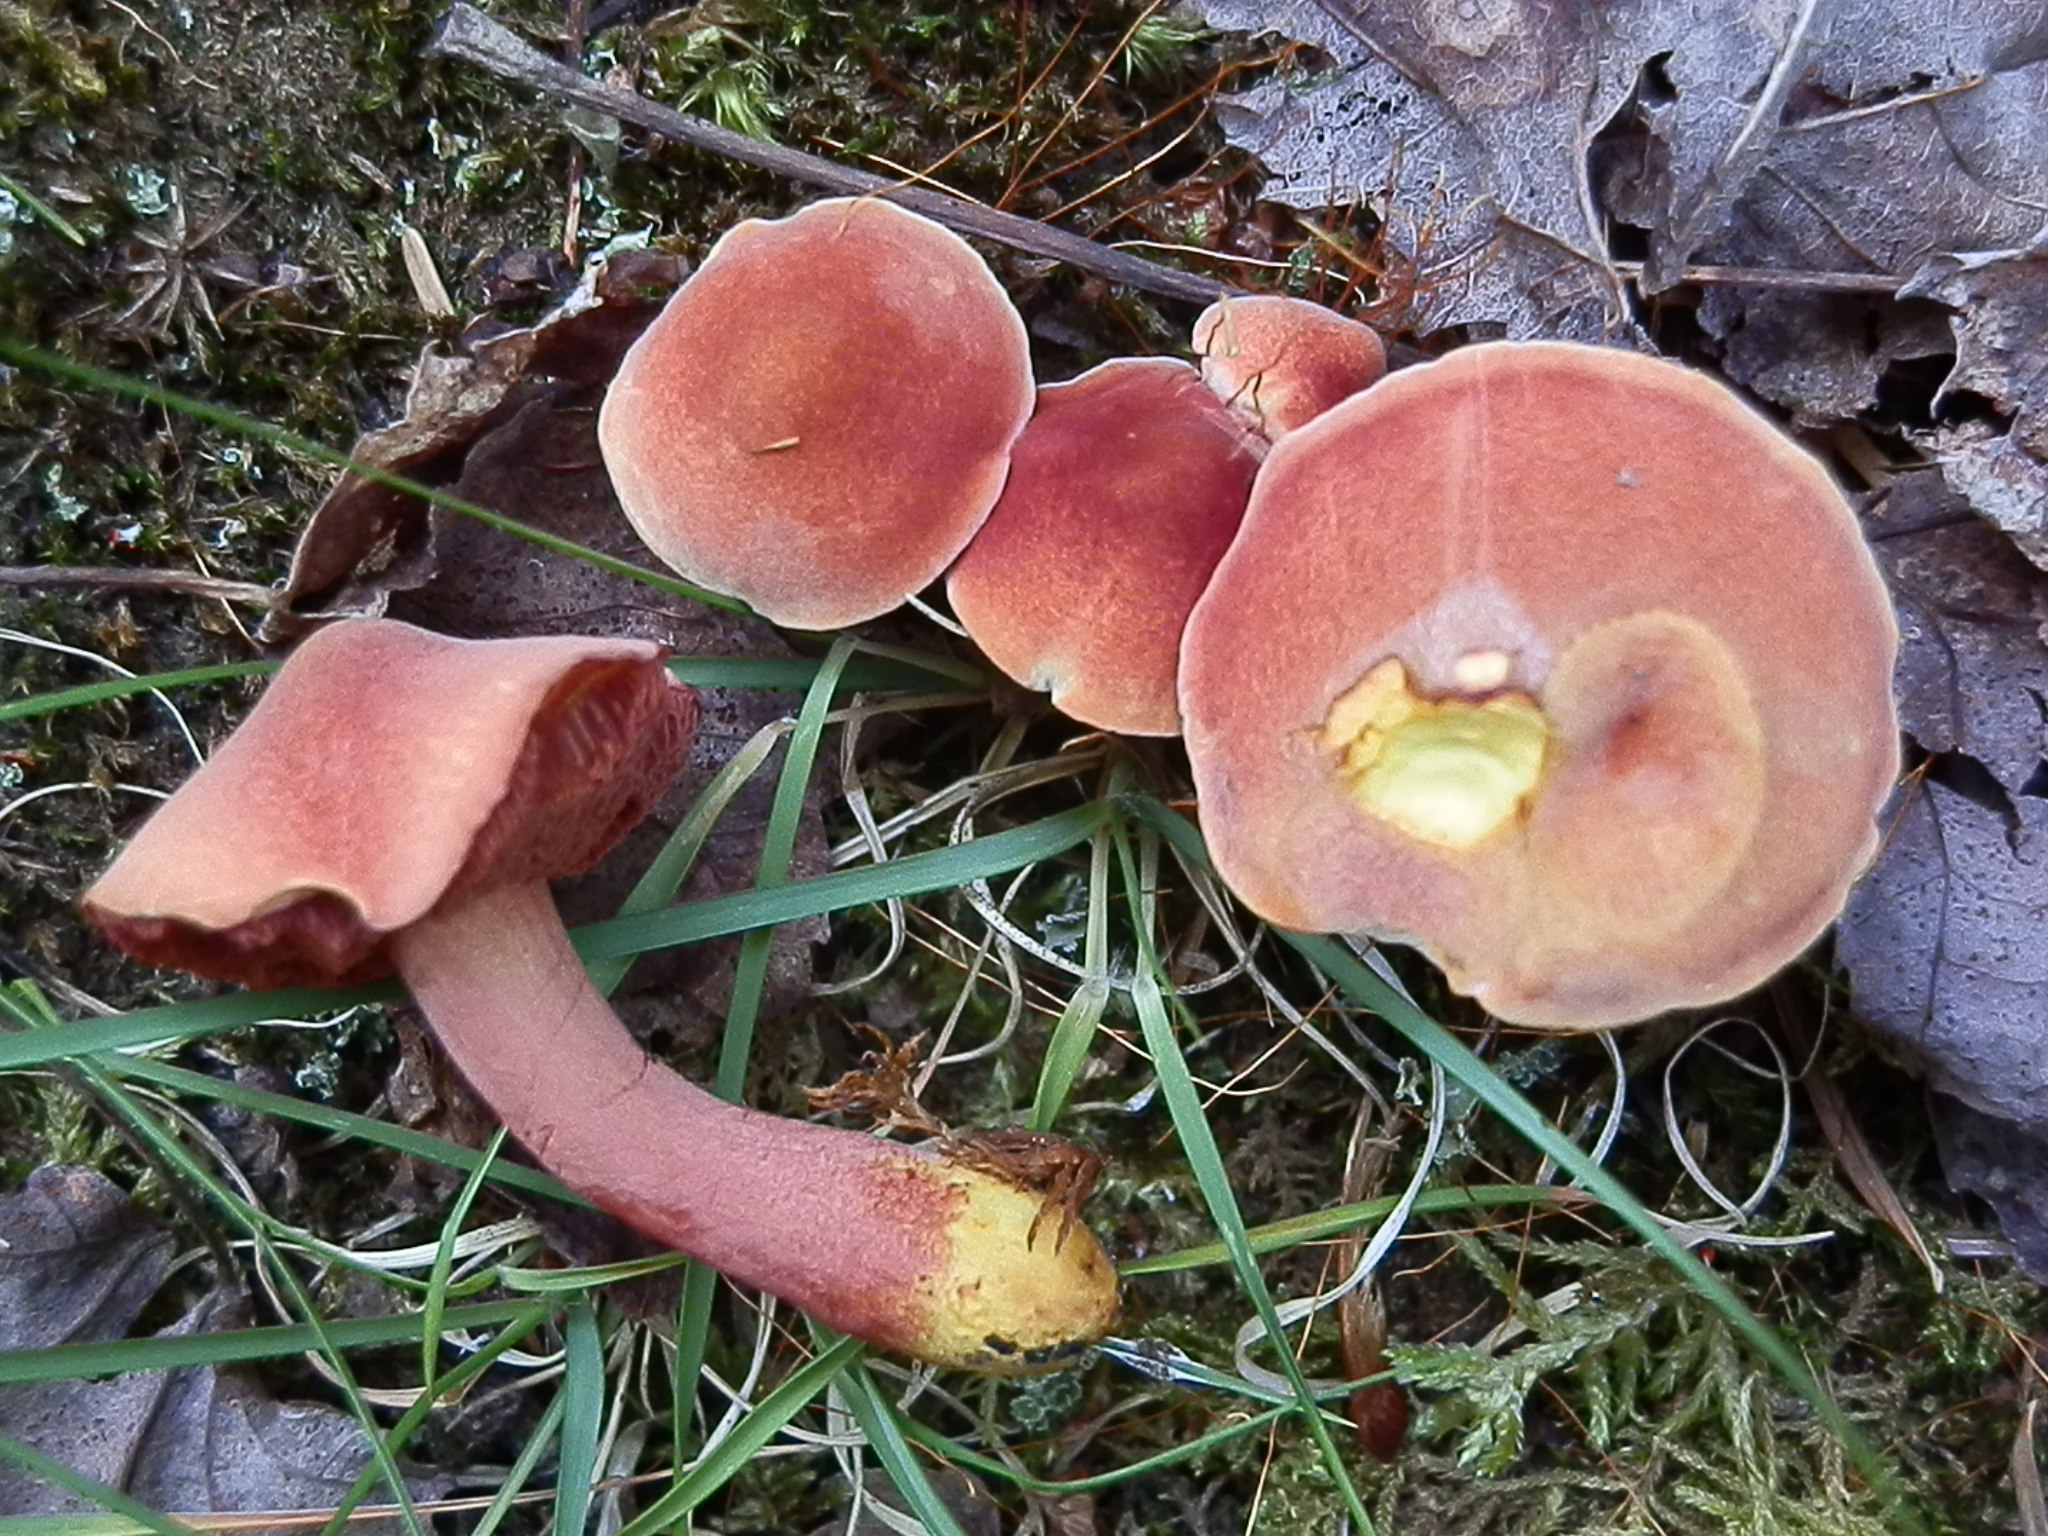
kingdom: Fungi
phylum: Basidiomycota
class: Agaricomycetes
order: Boletales
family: Boletaceae
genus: Chalciporus
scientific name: Chalciporus pseudorubinellus
